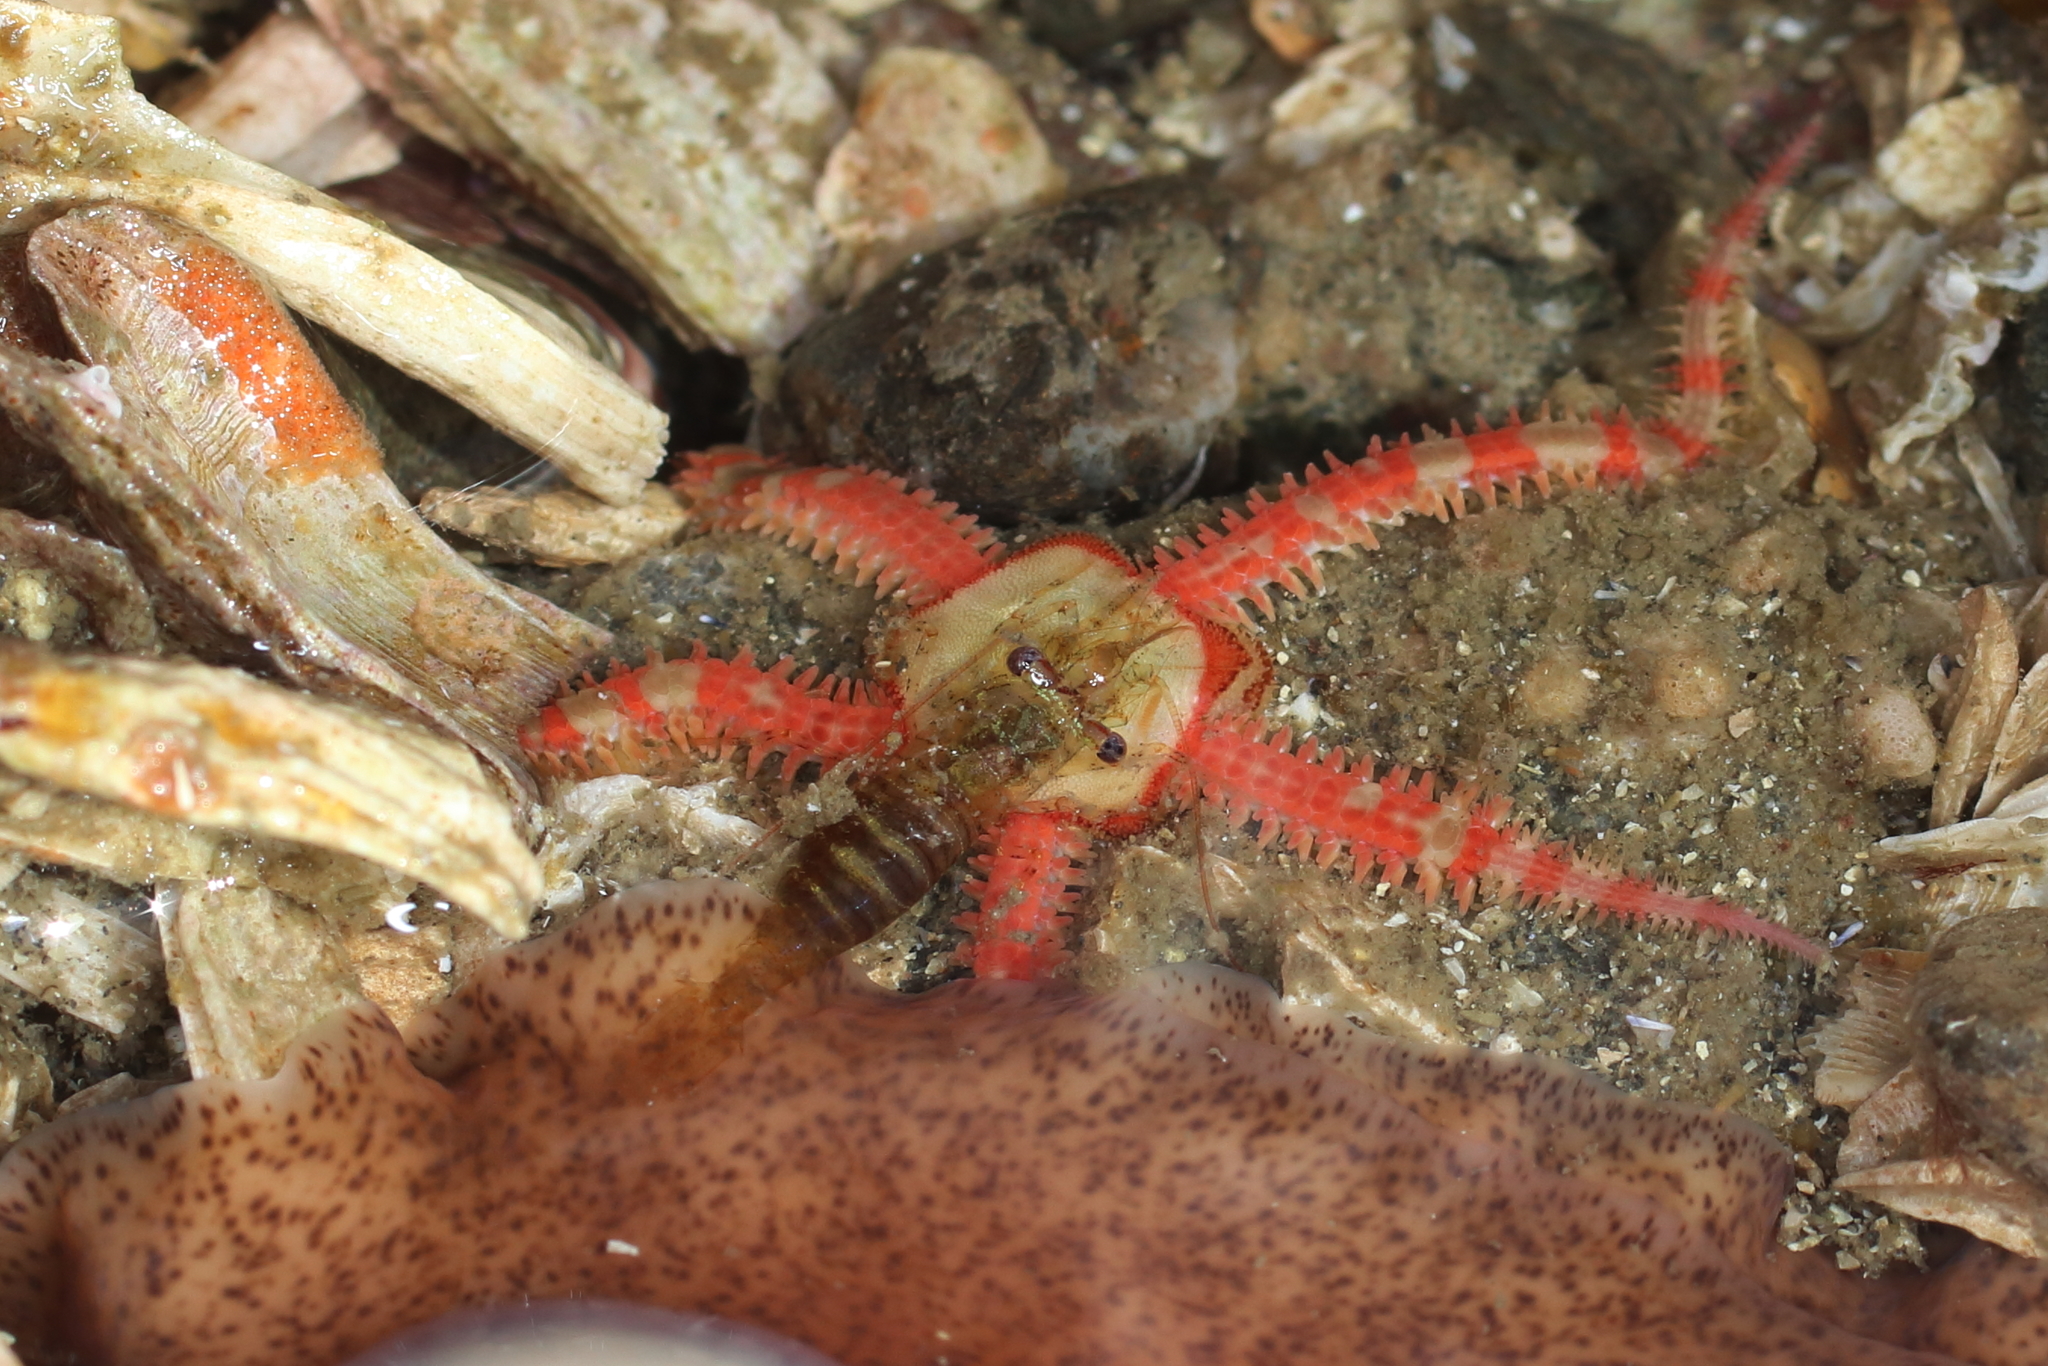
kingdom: Animalia
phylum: Echinodermata
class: Ophiuroidea
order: Amphilepidida
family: Ophiopholidae
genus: Ophiopholis
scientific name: Ophiopholis kennerlyi
